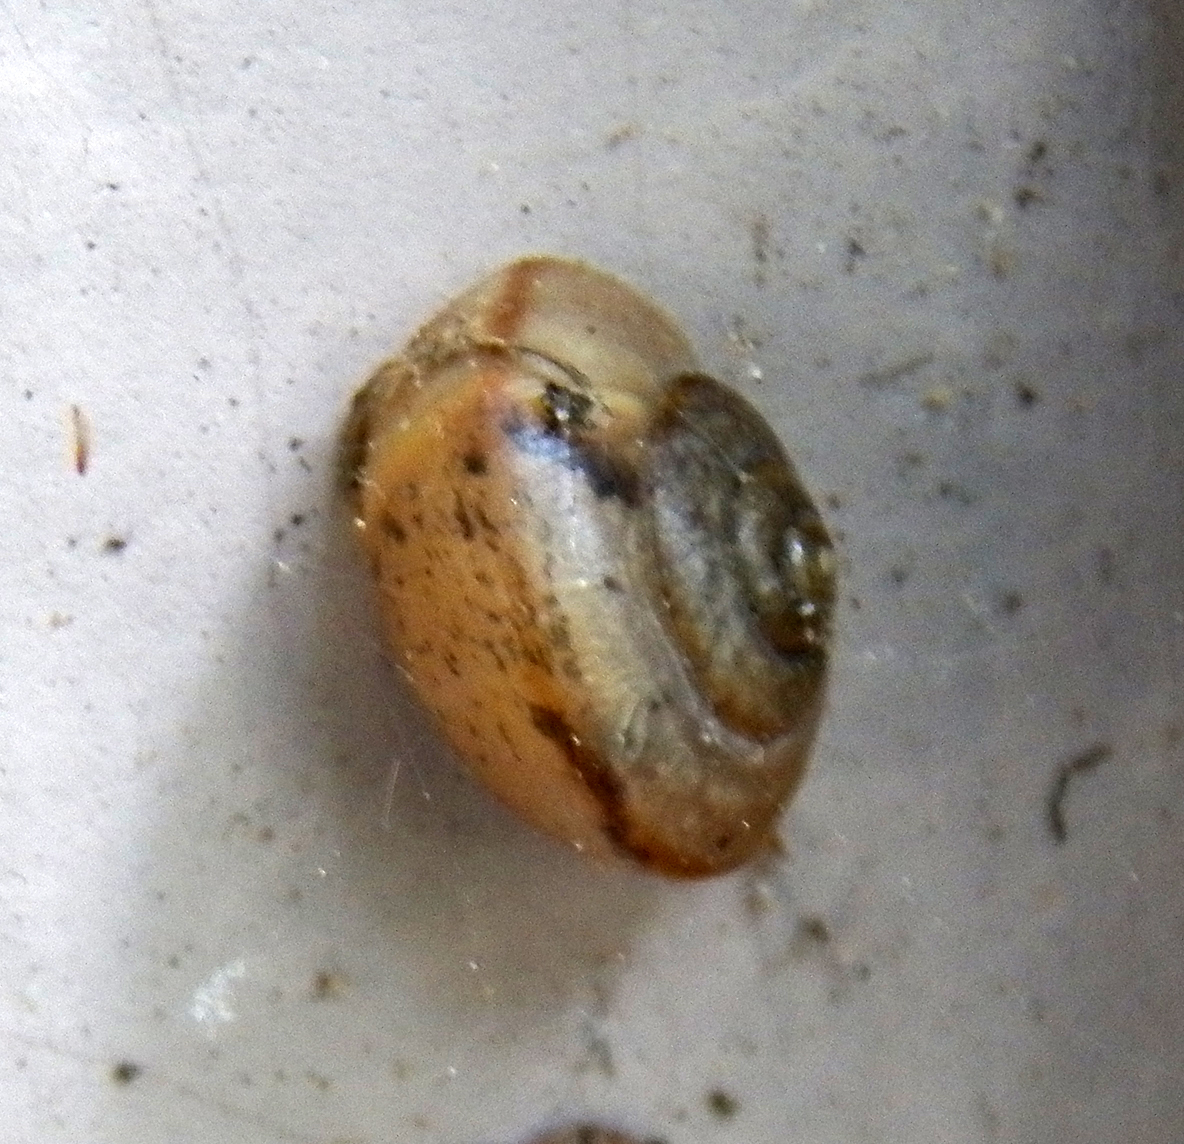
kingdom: Animalia
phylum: Mollusca
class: Gastropoda
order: Stylommatophora
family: Camaenidae
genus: Bradybaena
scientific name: Bradybaena similaris
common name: Asian trampsnail
